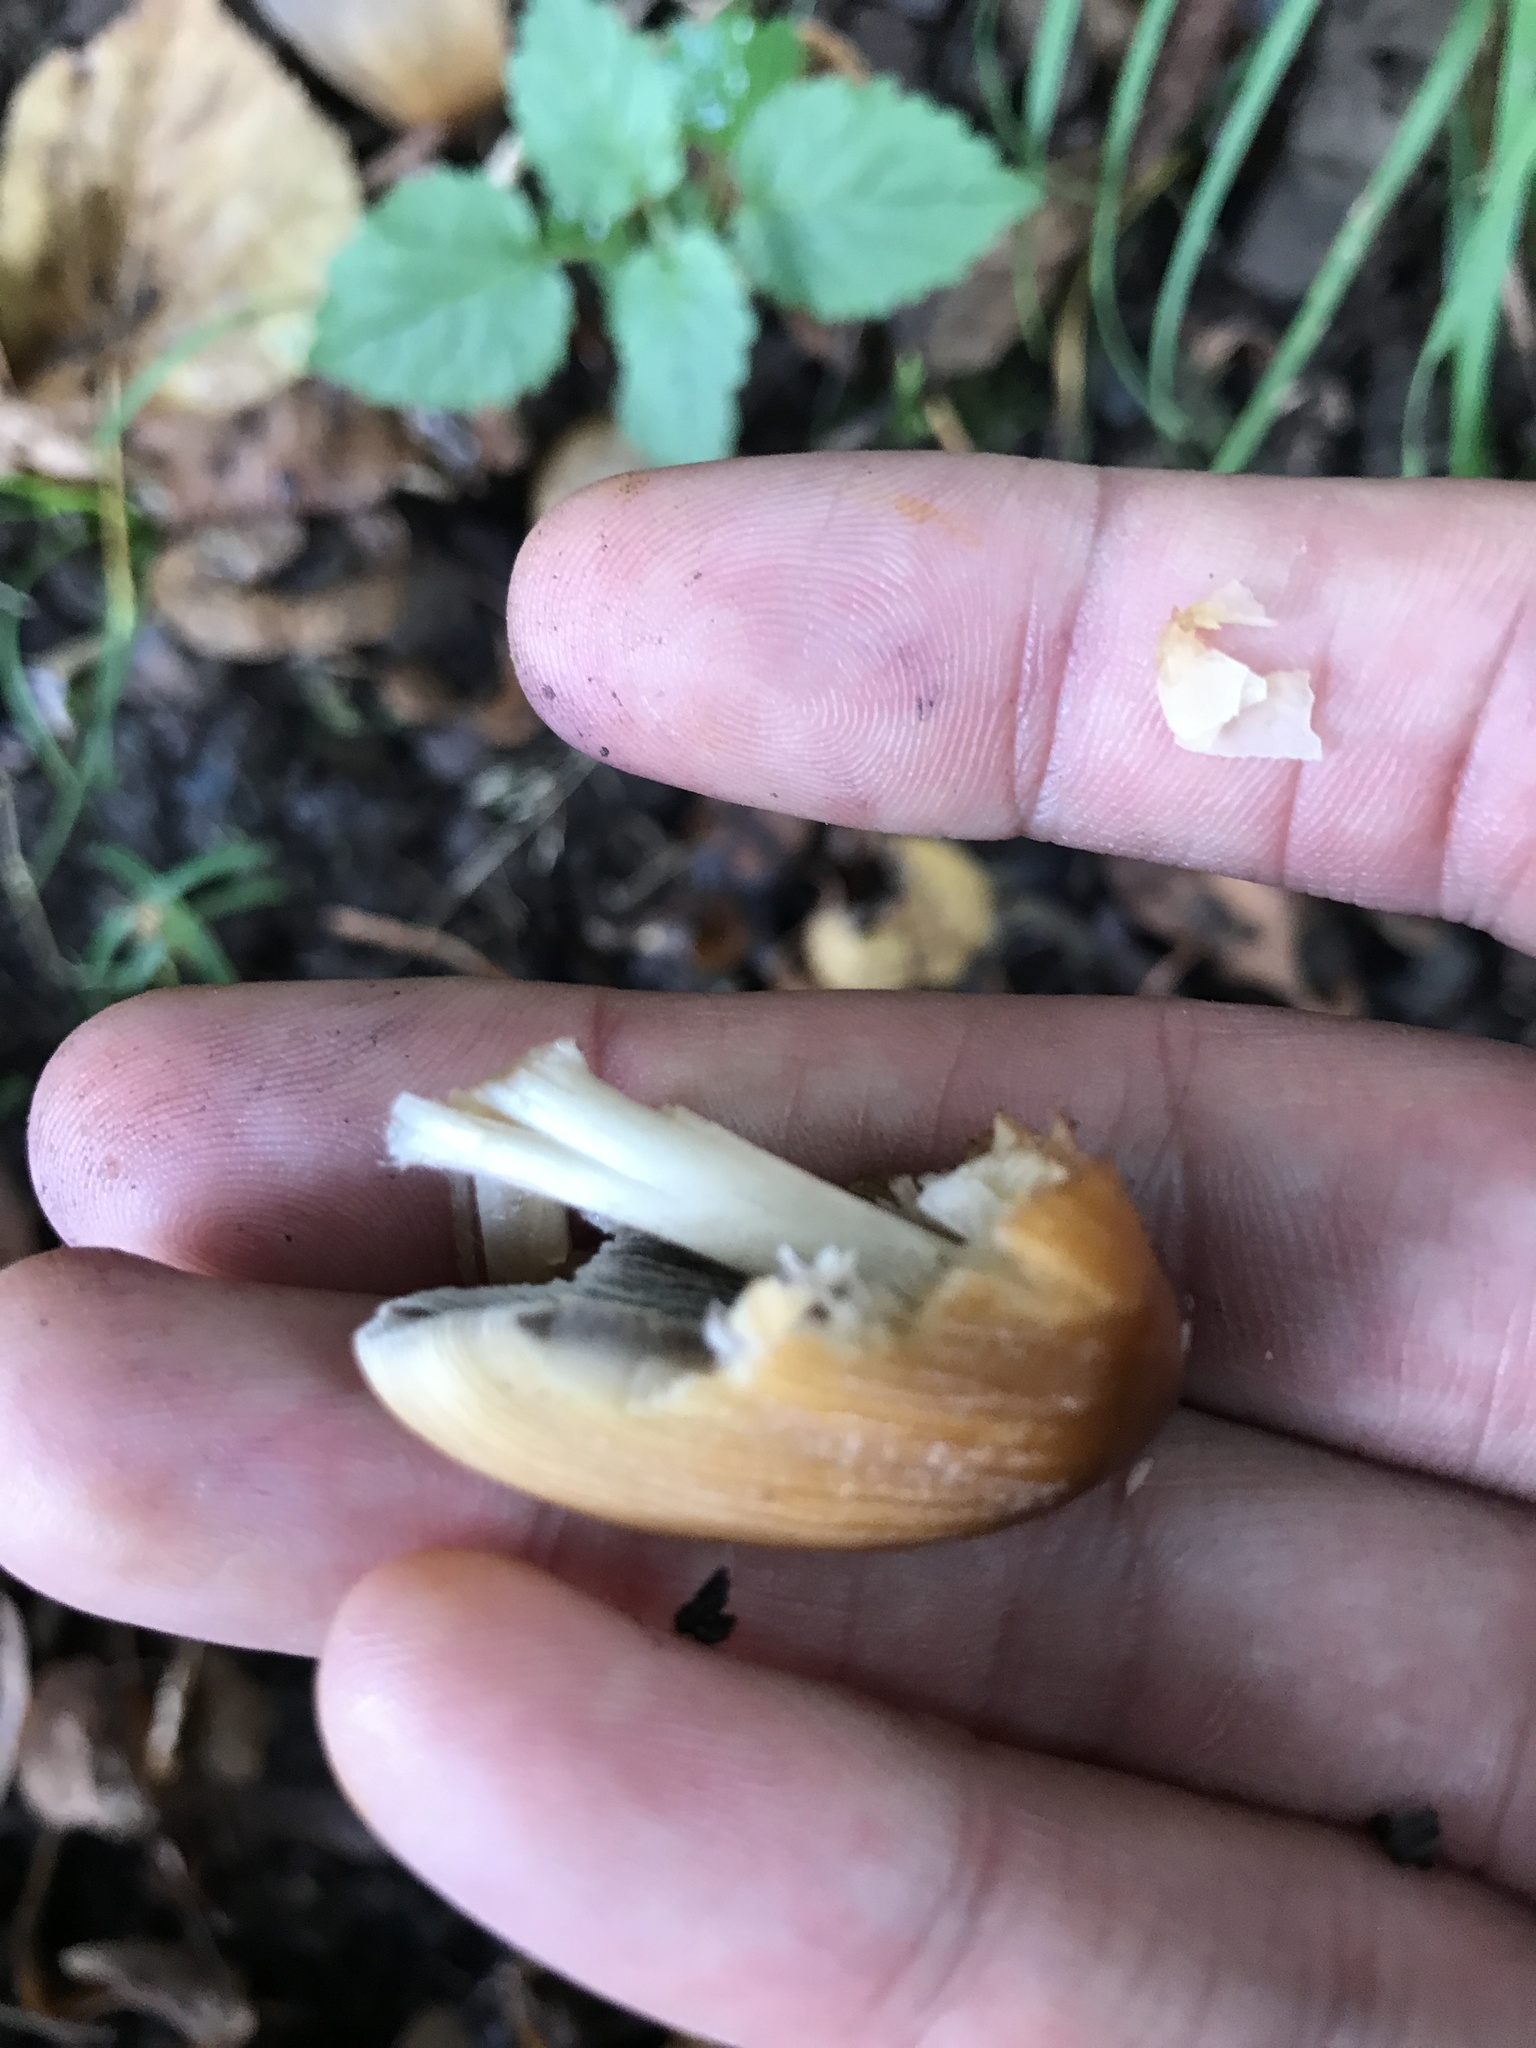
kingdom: Fungi
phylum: Basidiomycota
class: Agaricomycetes
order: Agaricales
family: Psathyrellaceae
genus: Coprinellus
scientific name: Coprinellus micaceus
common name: Glistening ink-cap
